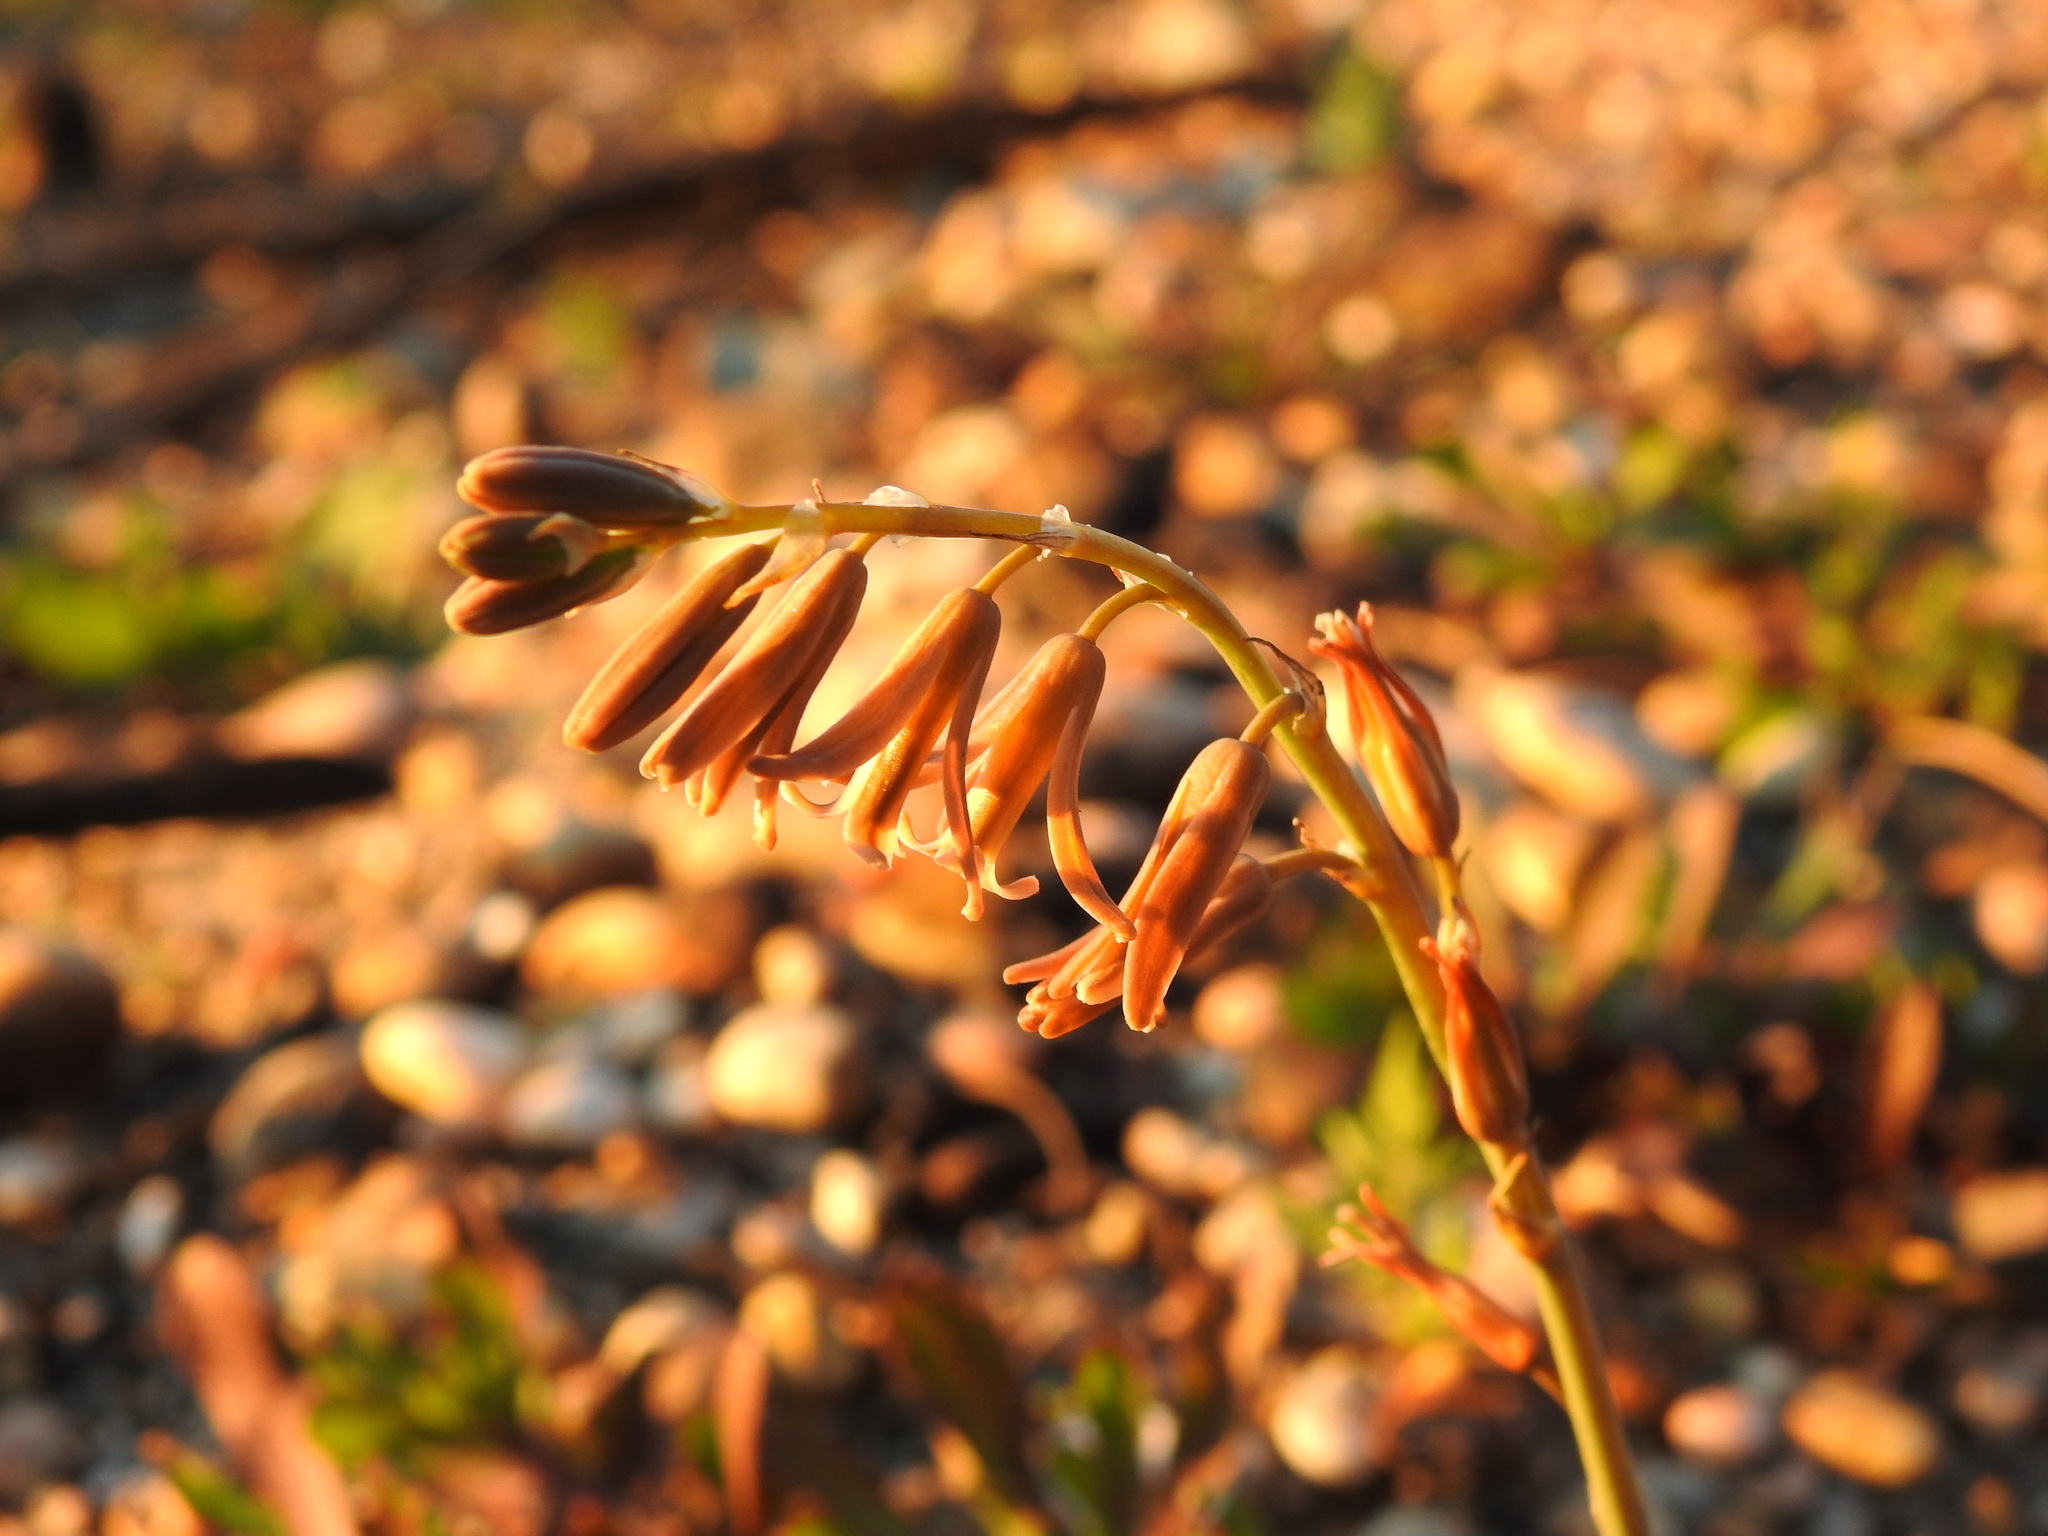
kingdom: Plantae
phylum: Tracheophyta
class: Liliopsida
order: Asparagales
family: Asparagaceae
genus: Dipcadi
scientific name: Dipcadi serotinum
